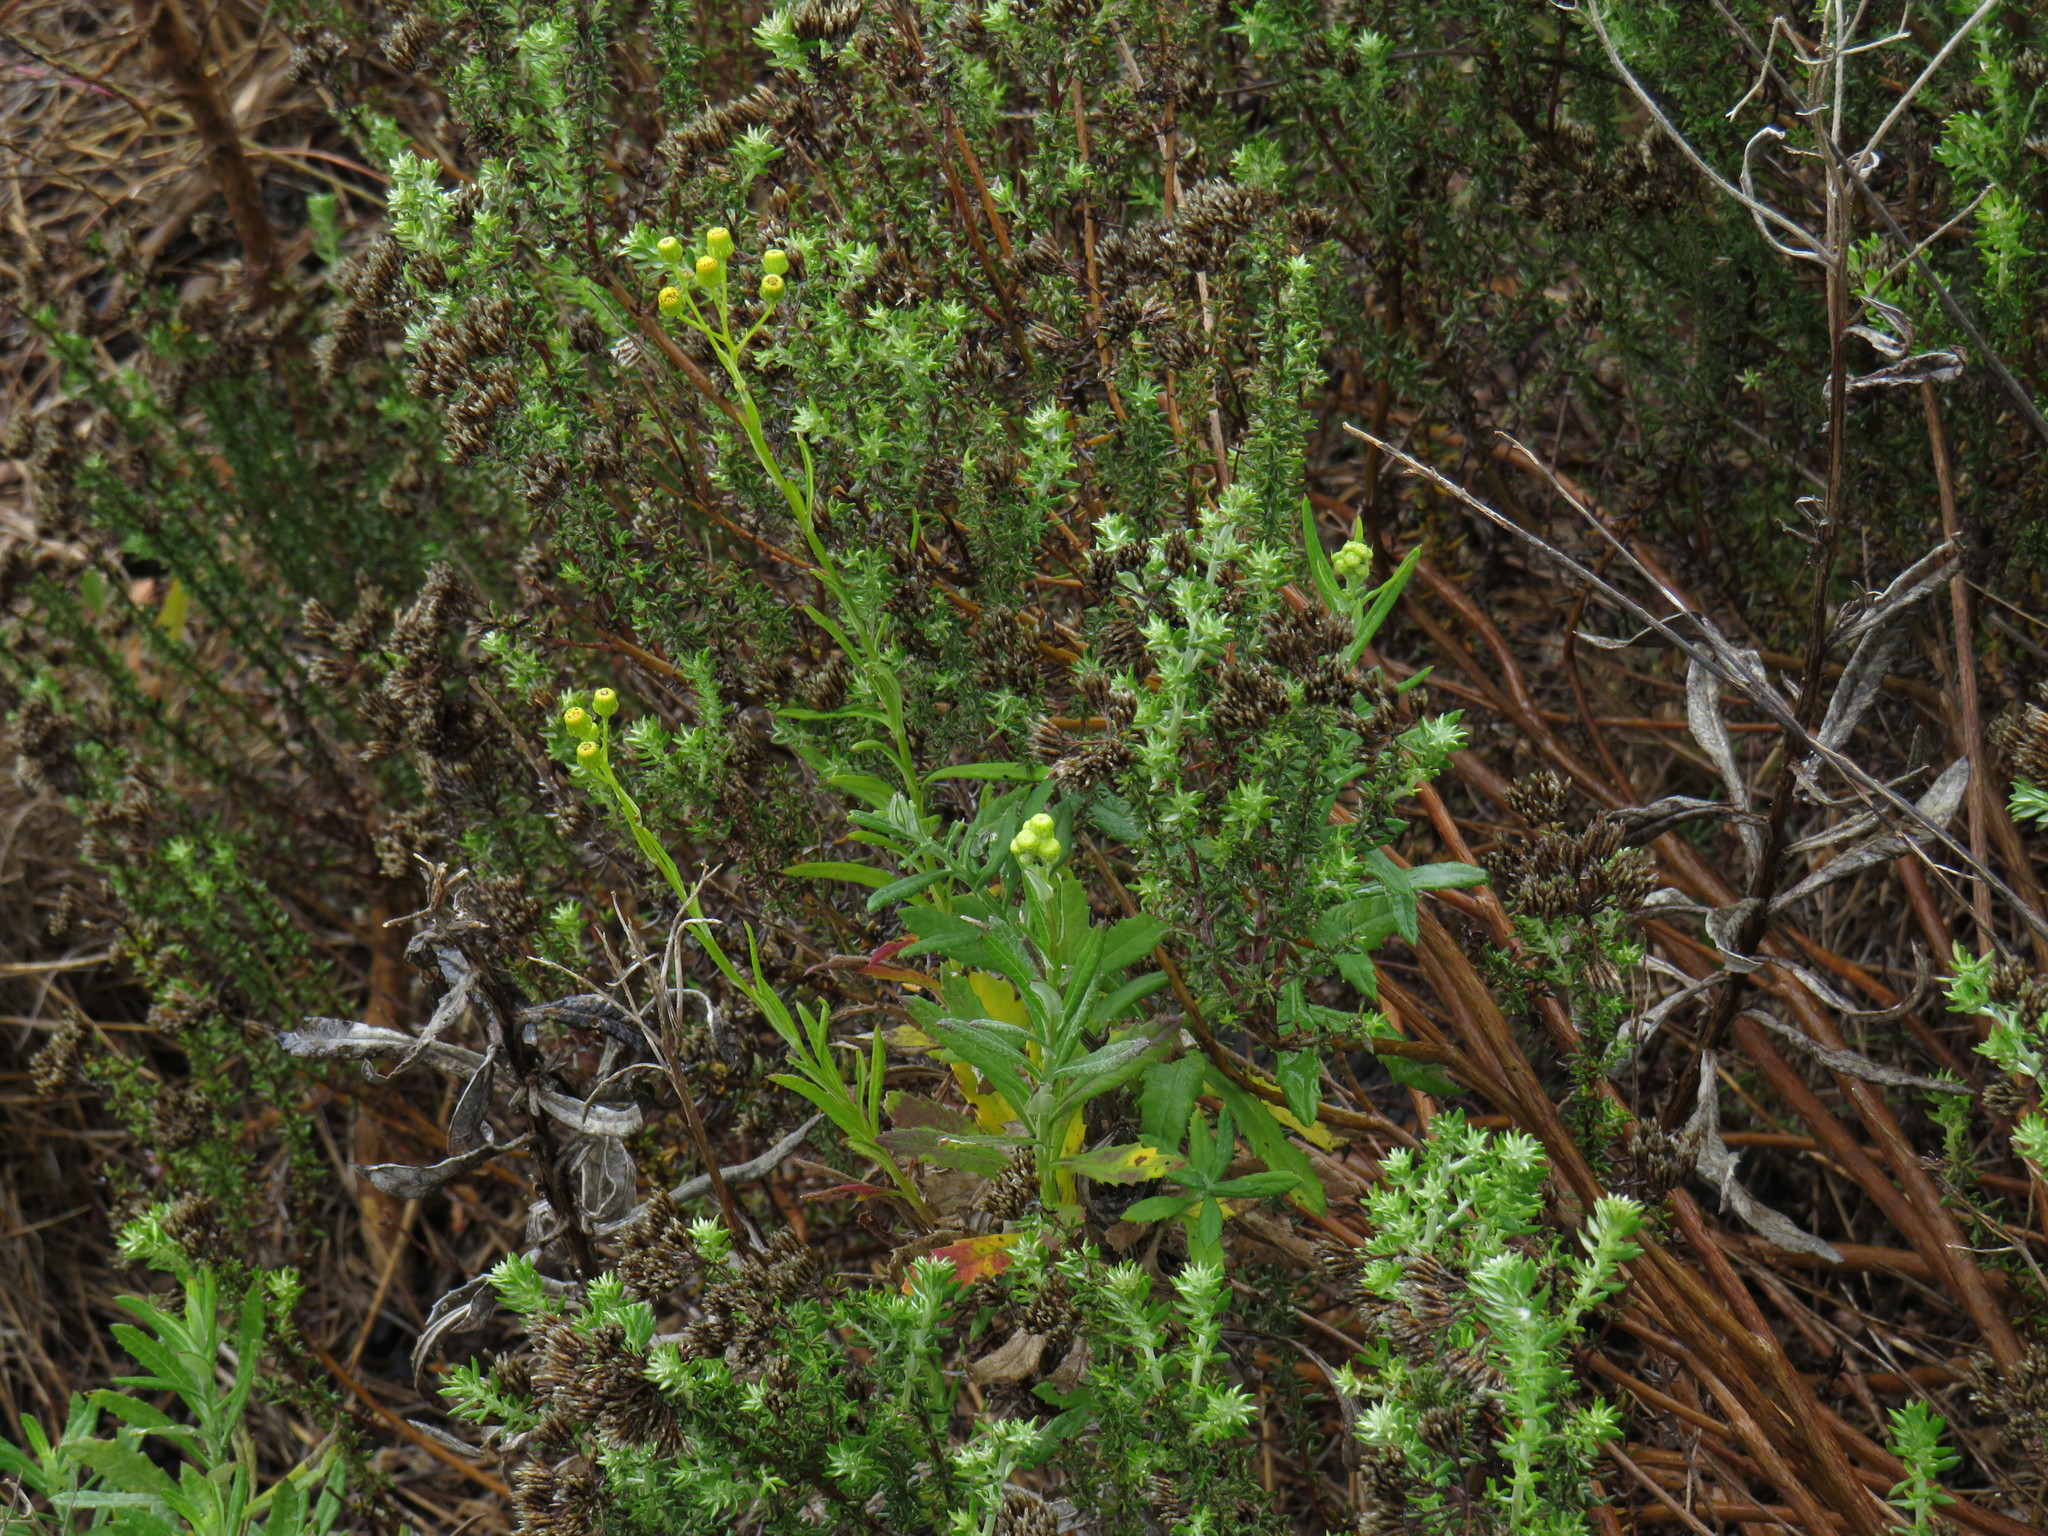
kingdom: Plantae
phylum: Tracheophyta
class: Magnoliopsida
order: Asterales
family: Asteraceae
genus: Senecio
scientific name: Senecio pterophorus
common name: Shoddy ragwort
